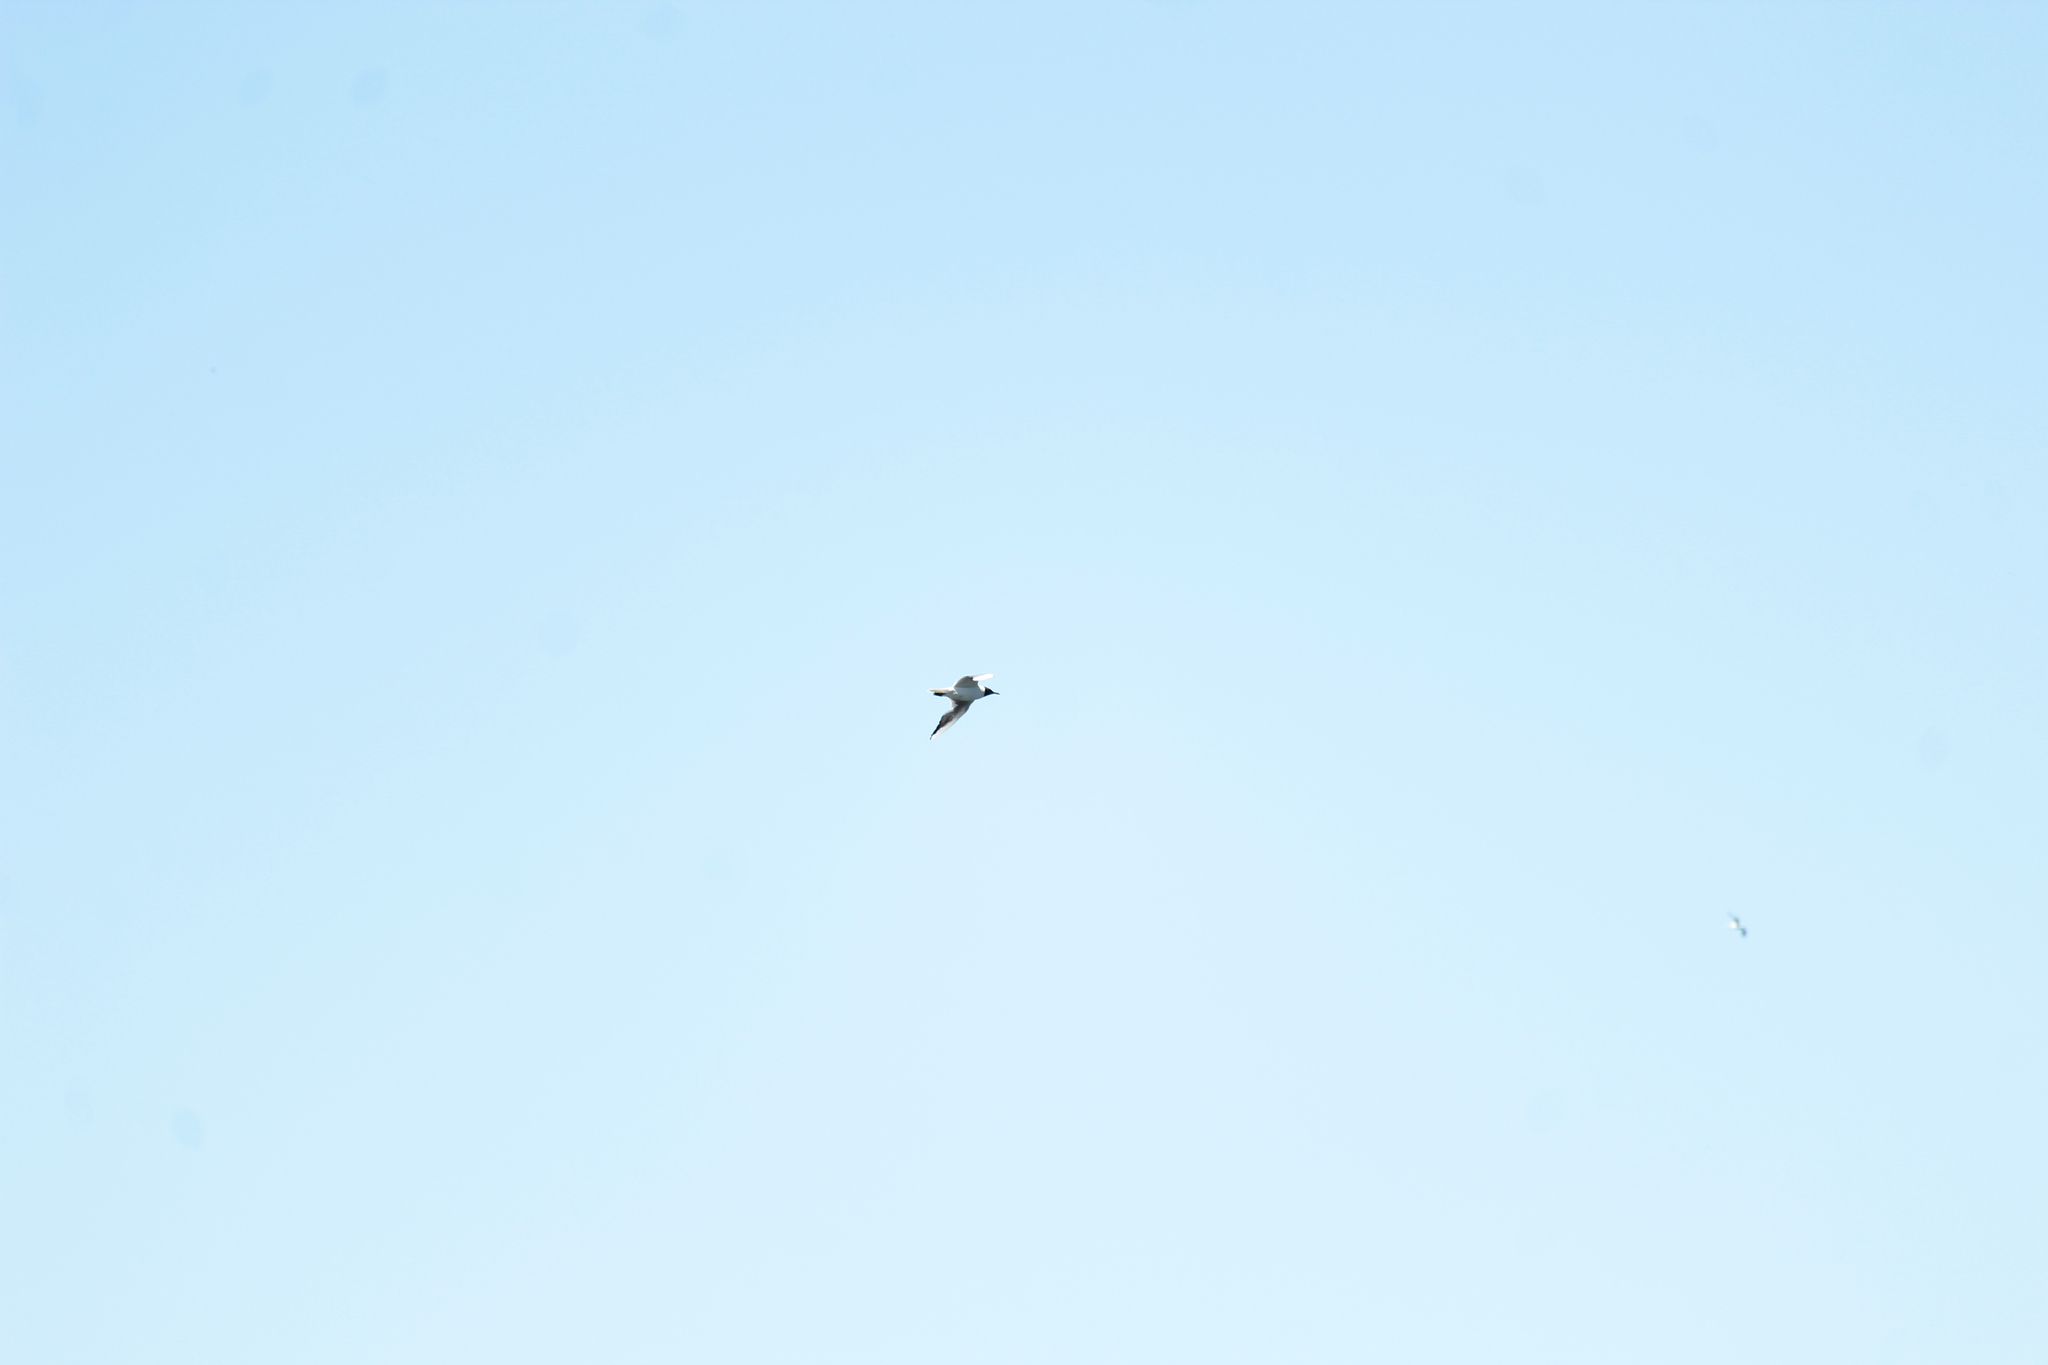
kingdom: Animalia
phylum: Chordata
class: Aves
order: Charadriiformes
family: Laridae
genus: Chroicocephalus
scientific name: Chroicocephalus ridibundus
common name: Black-headed gull
